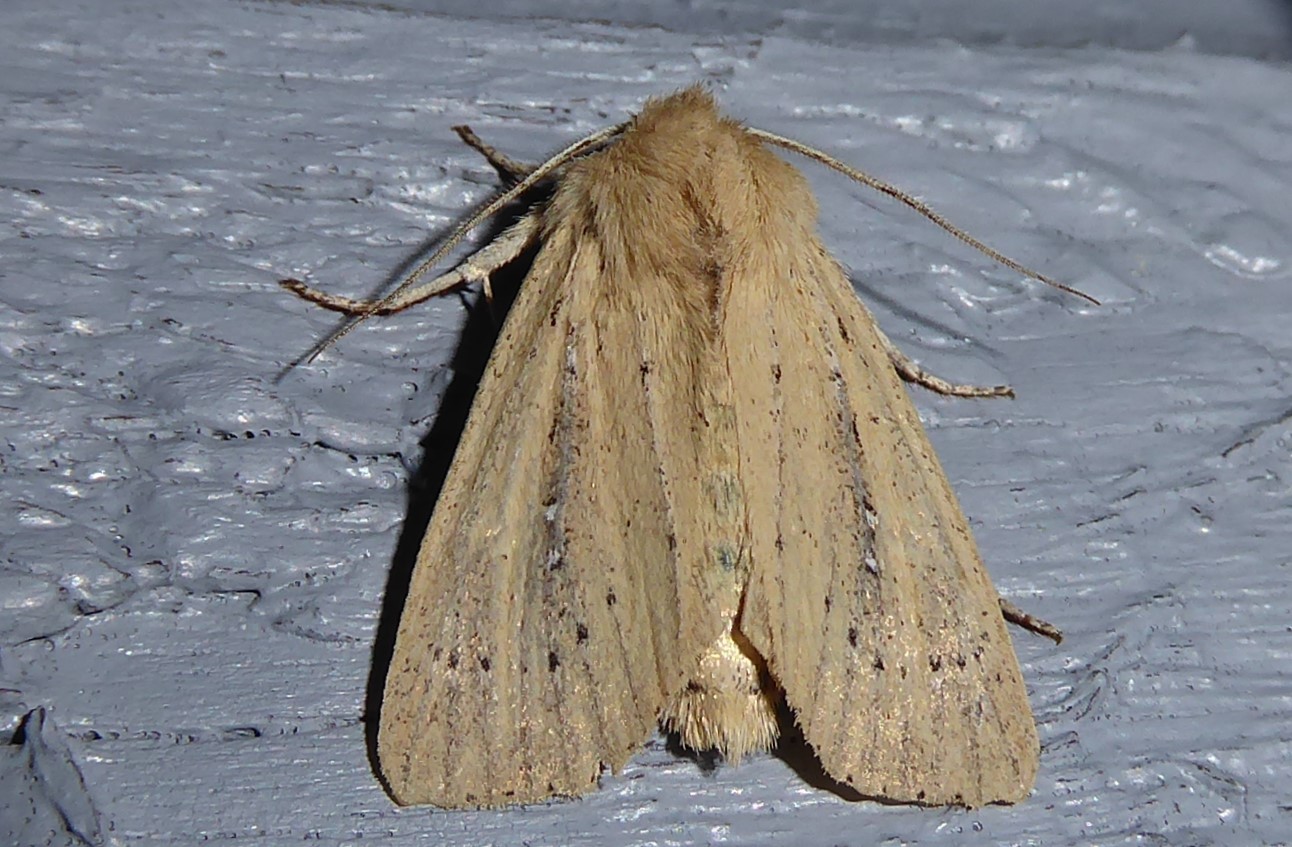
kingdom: Animalia
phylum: Arthropoda
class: Insecta
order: Lepidoptera
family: Noctuidae
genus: Ichneutica
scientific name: Ichneutica
